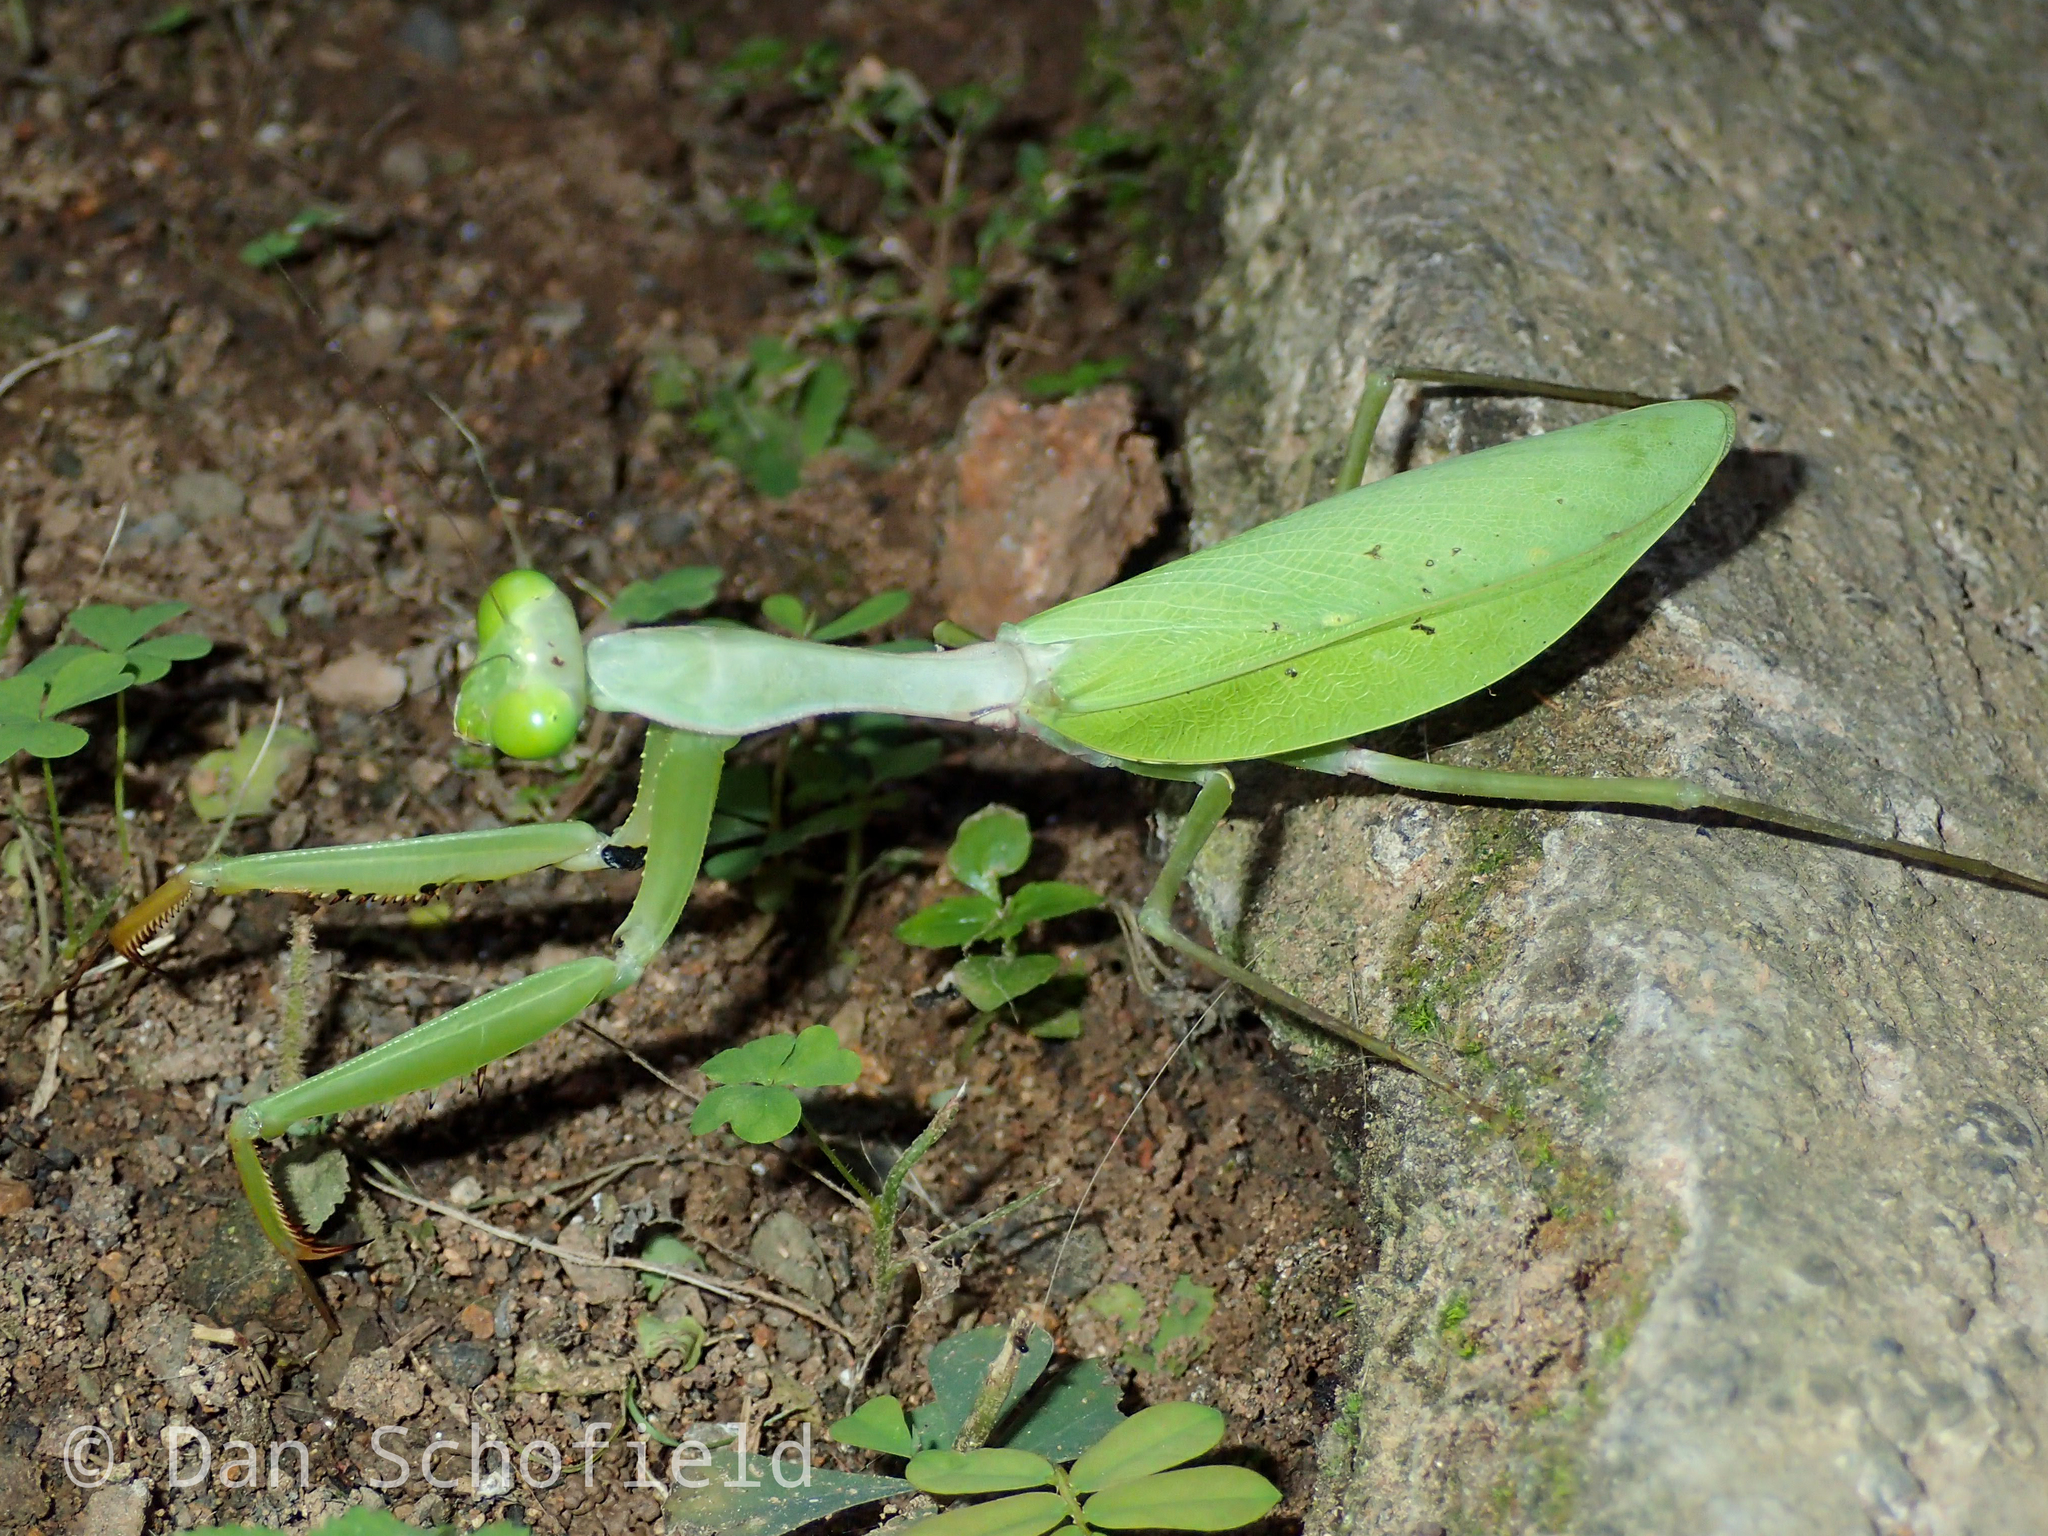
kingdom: Animalia
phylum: Arthropoda
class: Insecta
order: Mantodea
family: Mantidae
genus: Hierodula
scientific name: Hierodula purpurescens
